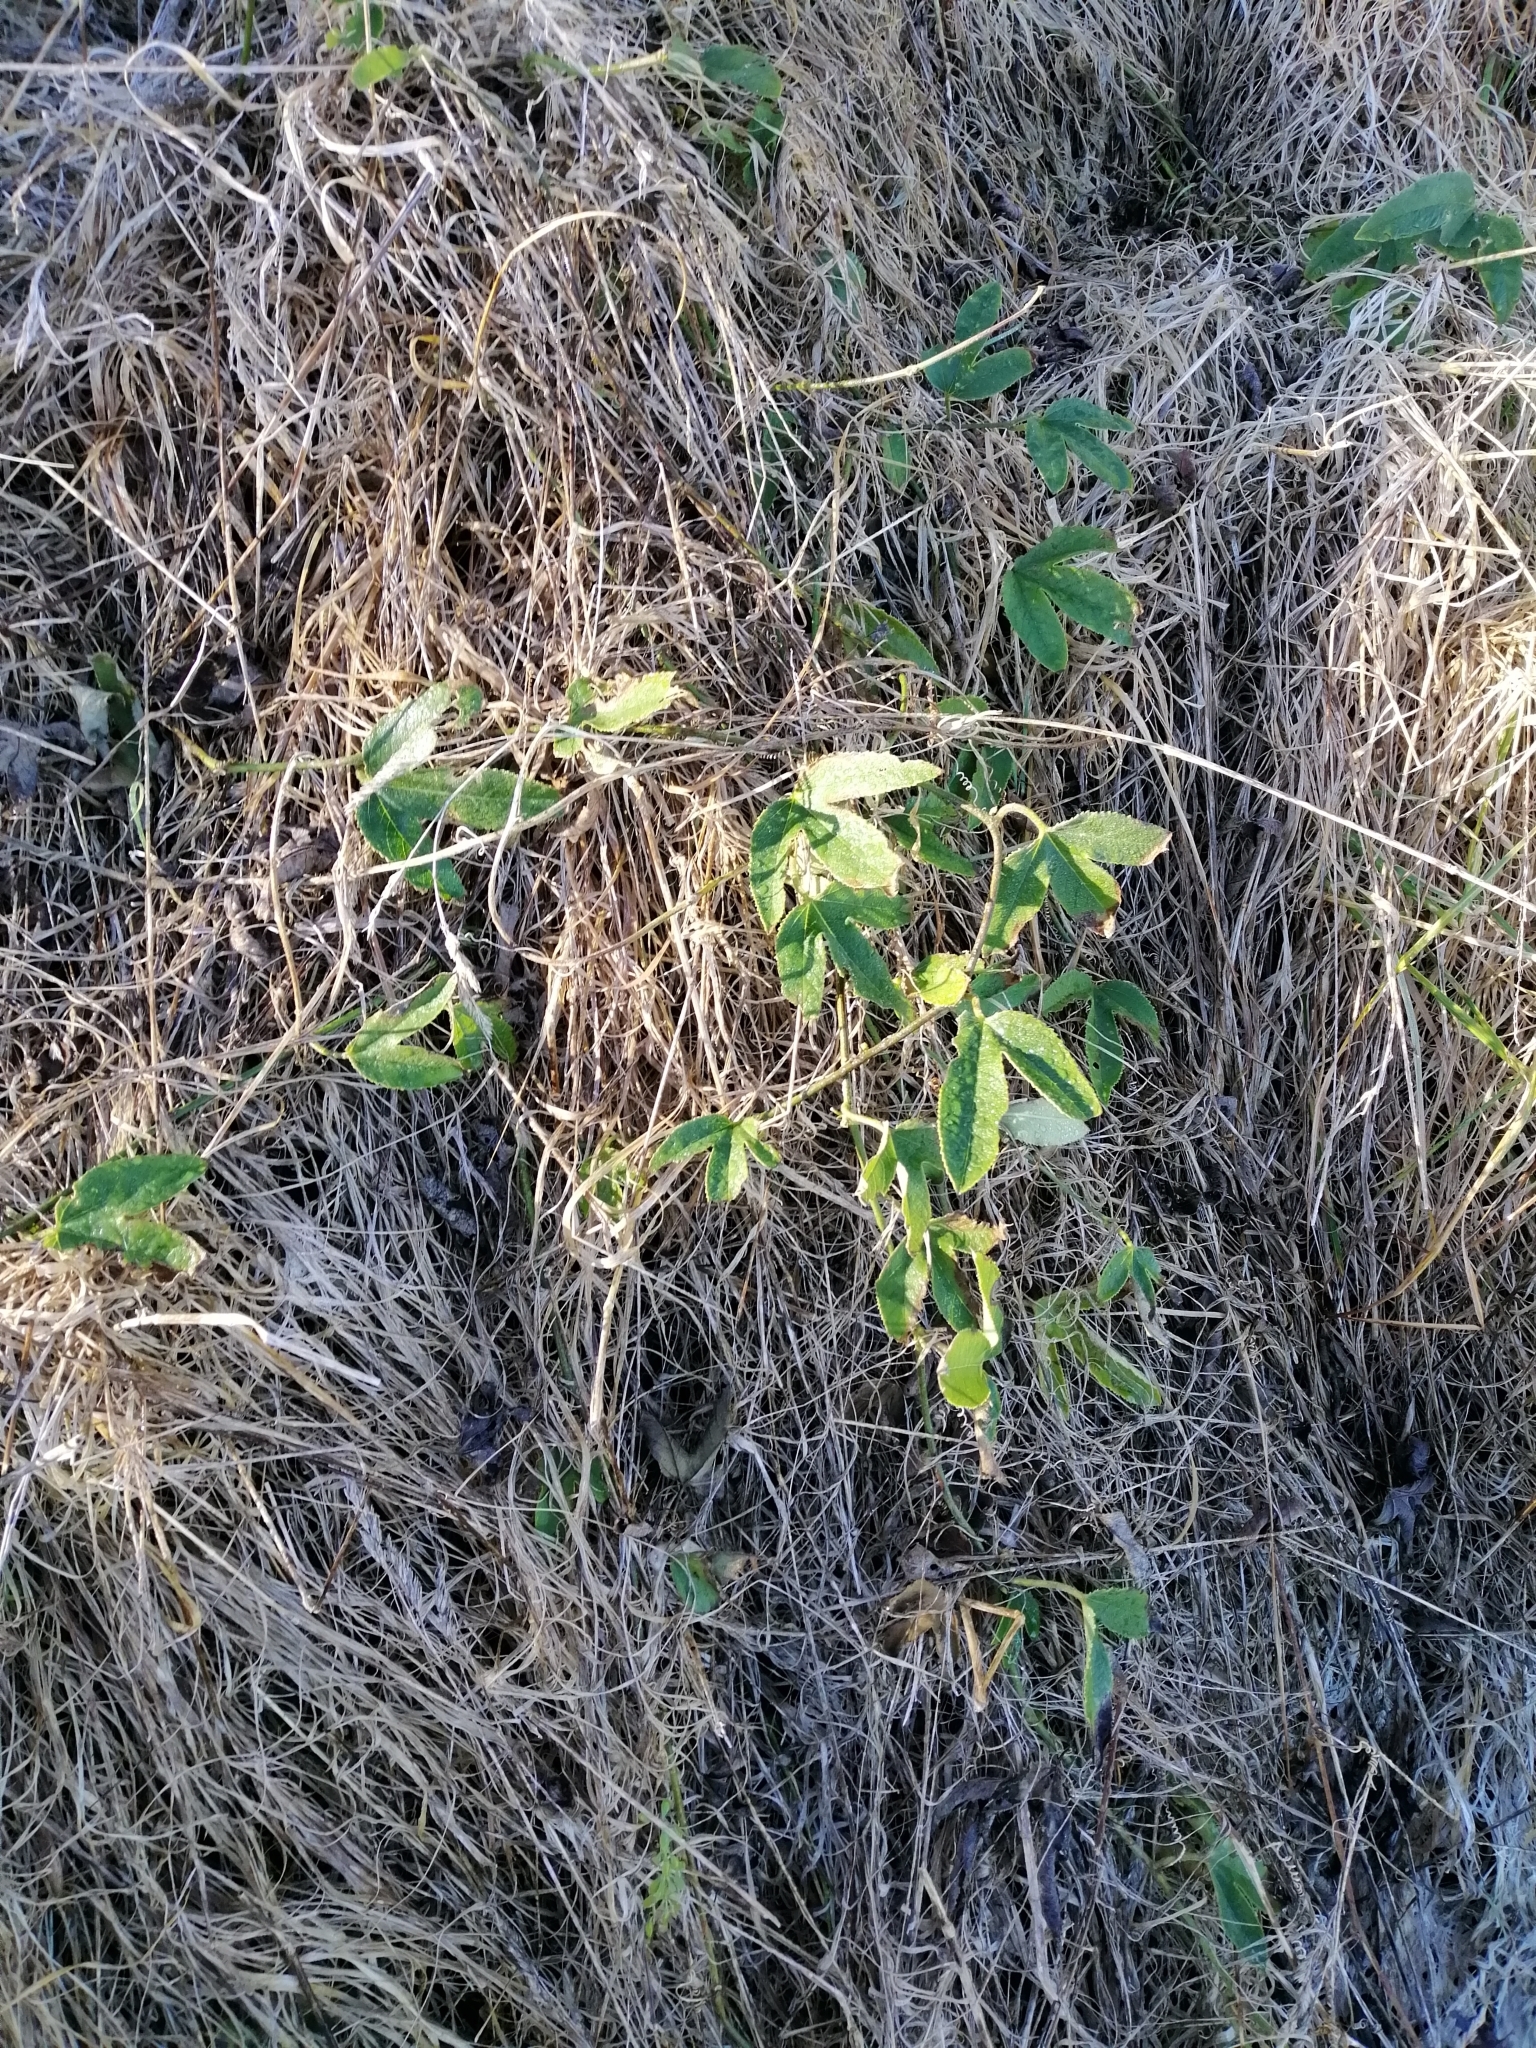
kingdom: Plantae
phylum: Tracheophyta
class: Magnoliopsida
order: Malpighiales
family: Passifloraceae
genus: Passiflora
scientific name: Passiflora tripartita
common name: Banana poka
